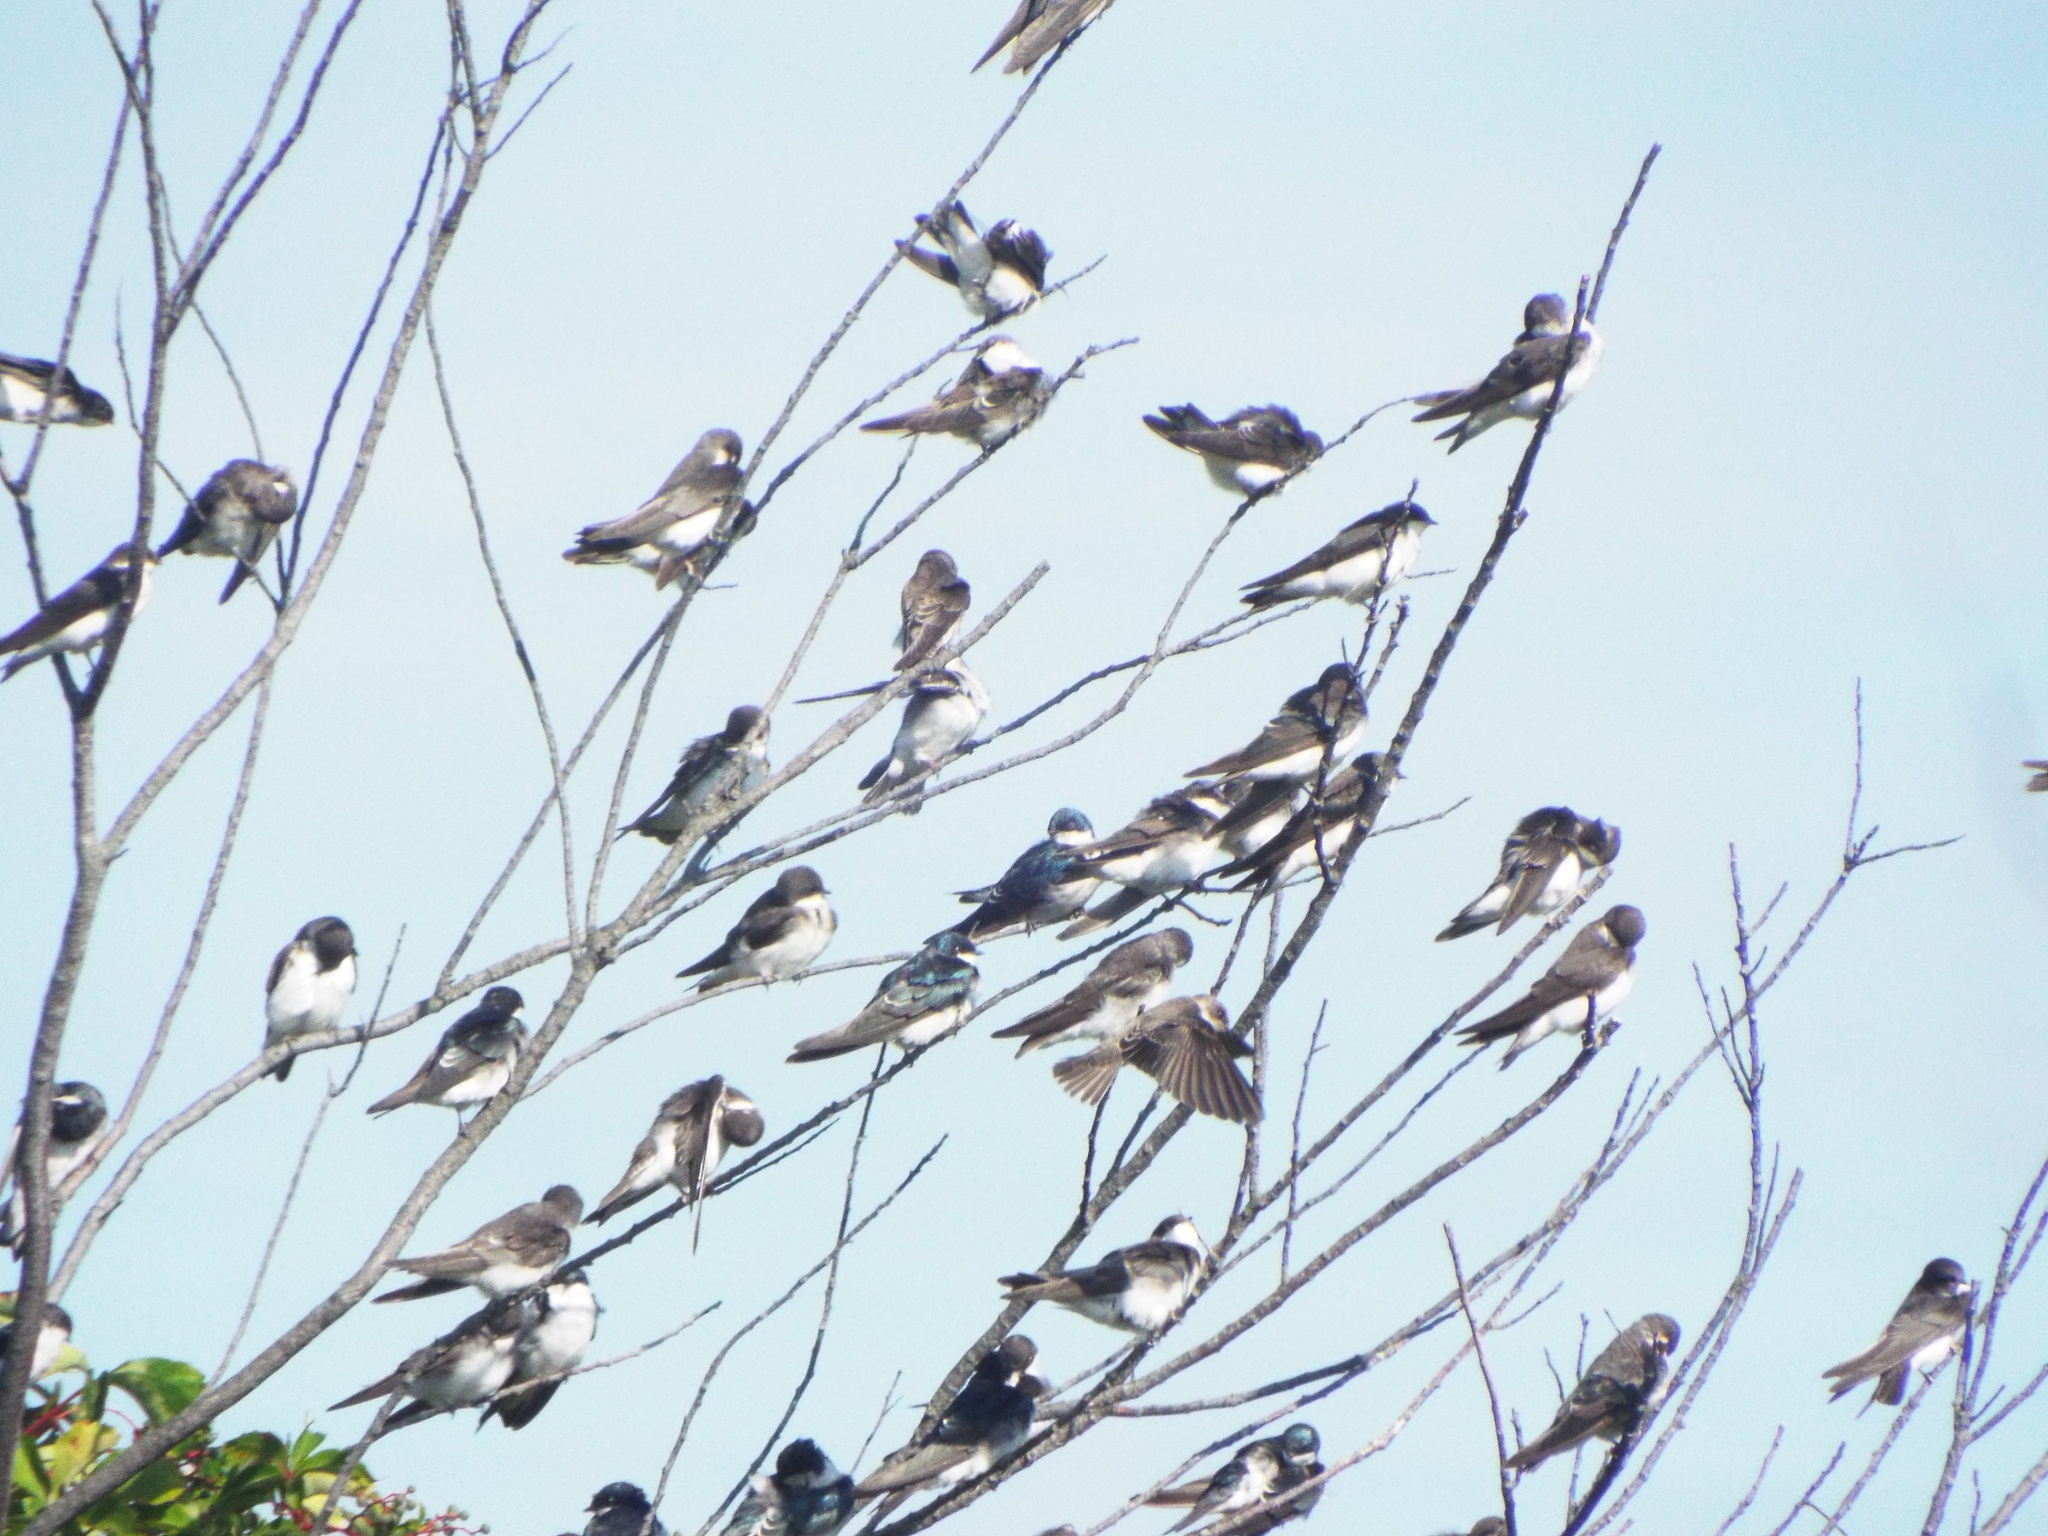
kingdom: Animalia
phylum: Chordata
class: Aves
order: Passeriformes
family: Hirundinidae
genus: Tachycineta
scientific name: Tachycineta bicolor
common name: Tree swallow
